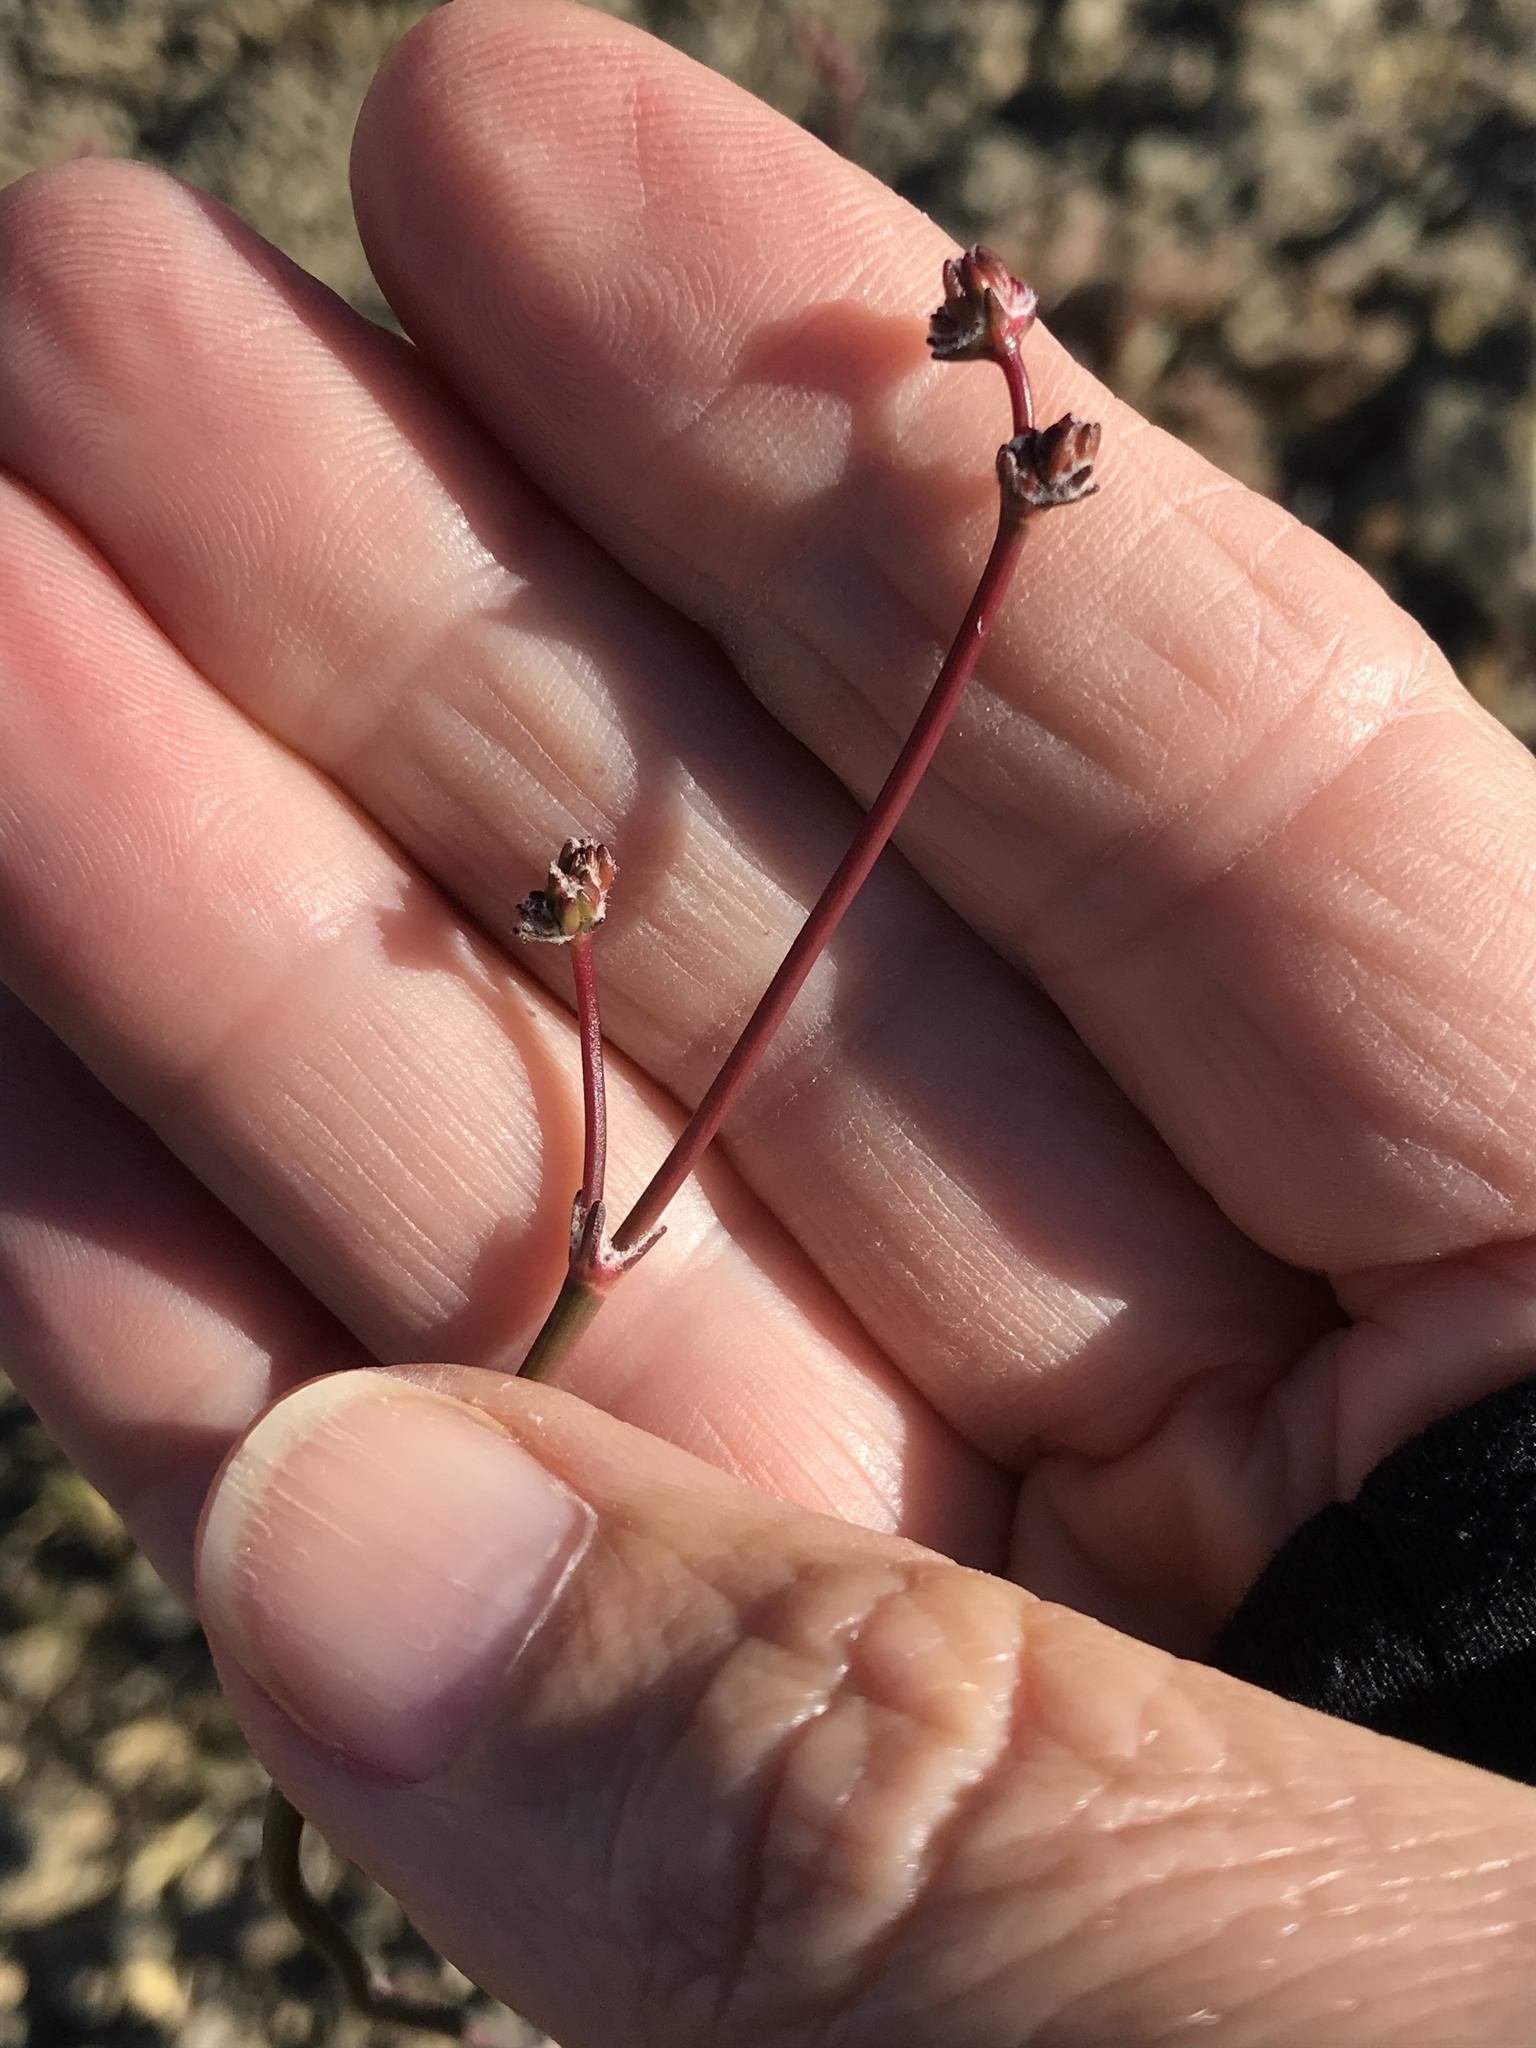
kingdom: Plantae
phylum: Tracheophyta
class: Magnoliopsida
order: Caryophyllales
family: Polygonaceae
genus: Eriogonum
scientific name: Eriogonum nudum
